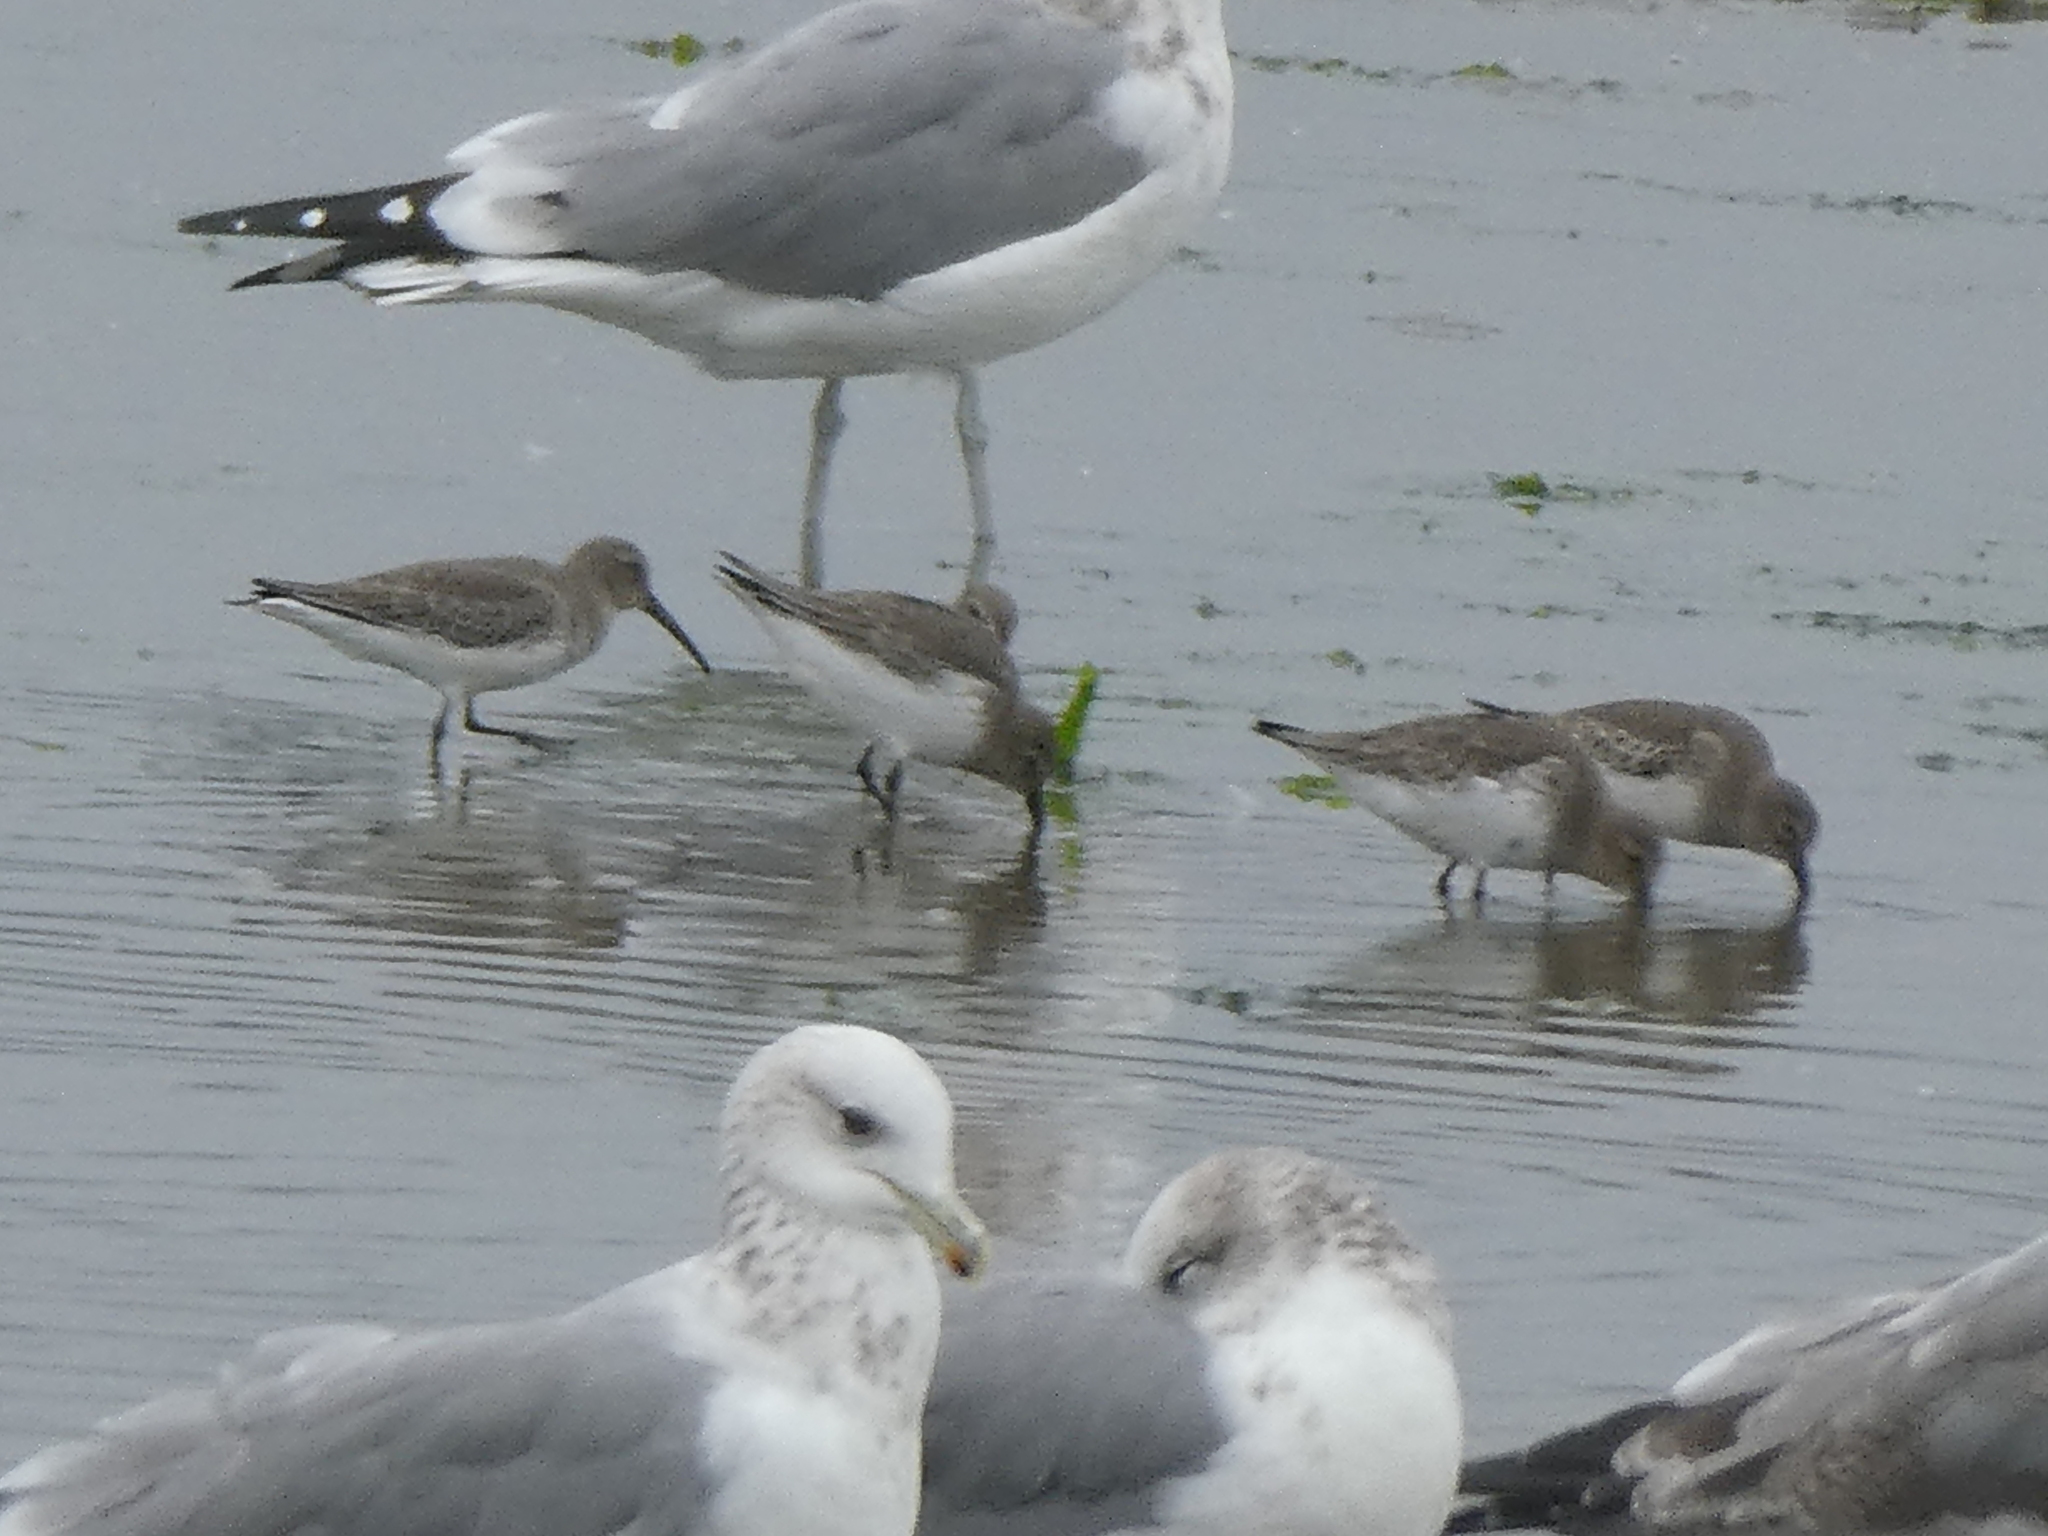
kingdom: Animalia
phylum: Chordata
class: Aves
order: Charadriiformes
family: Scolopacidae
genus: Calidris
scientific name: Calidris alpina
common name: Dunlin
